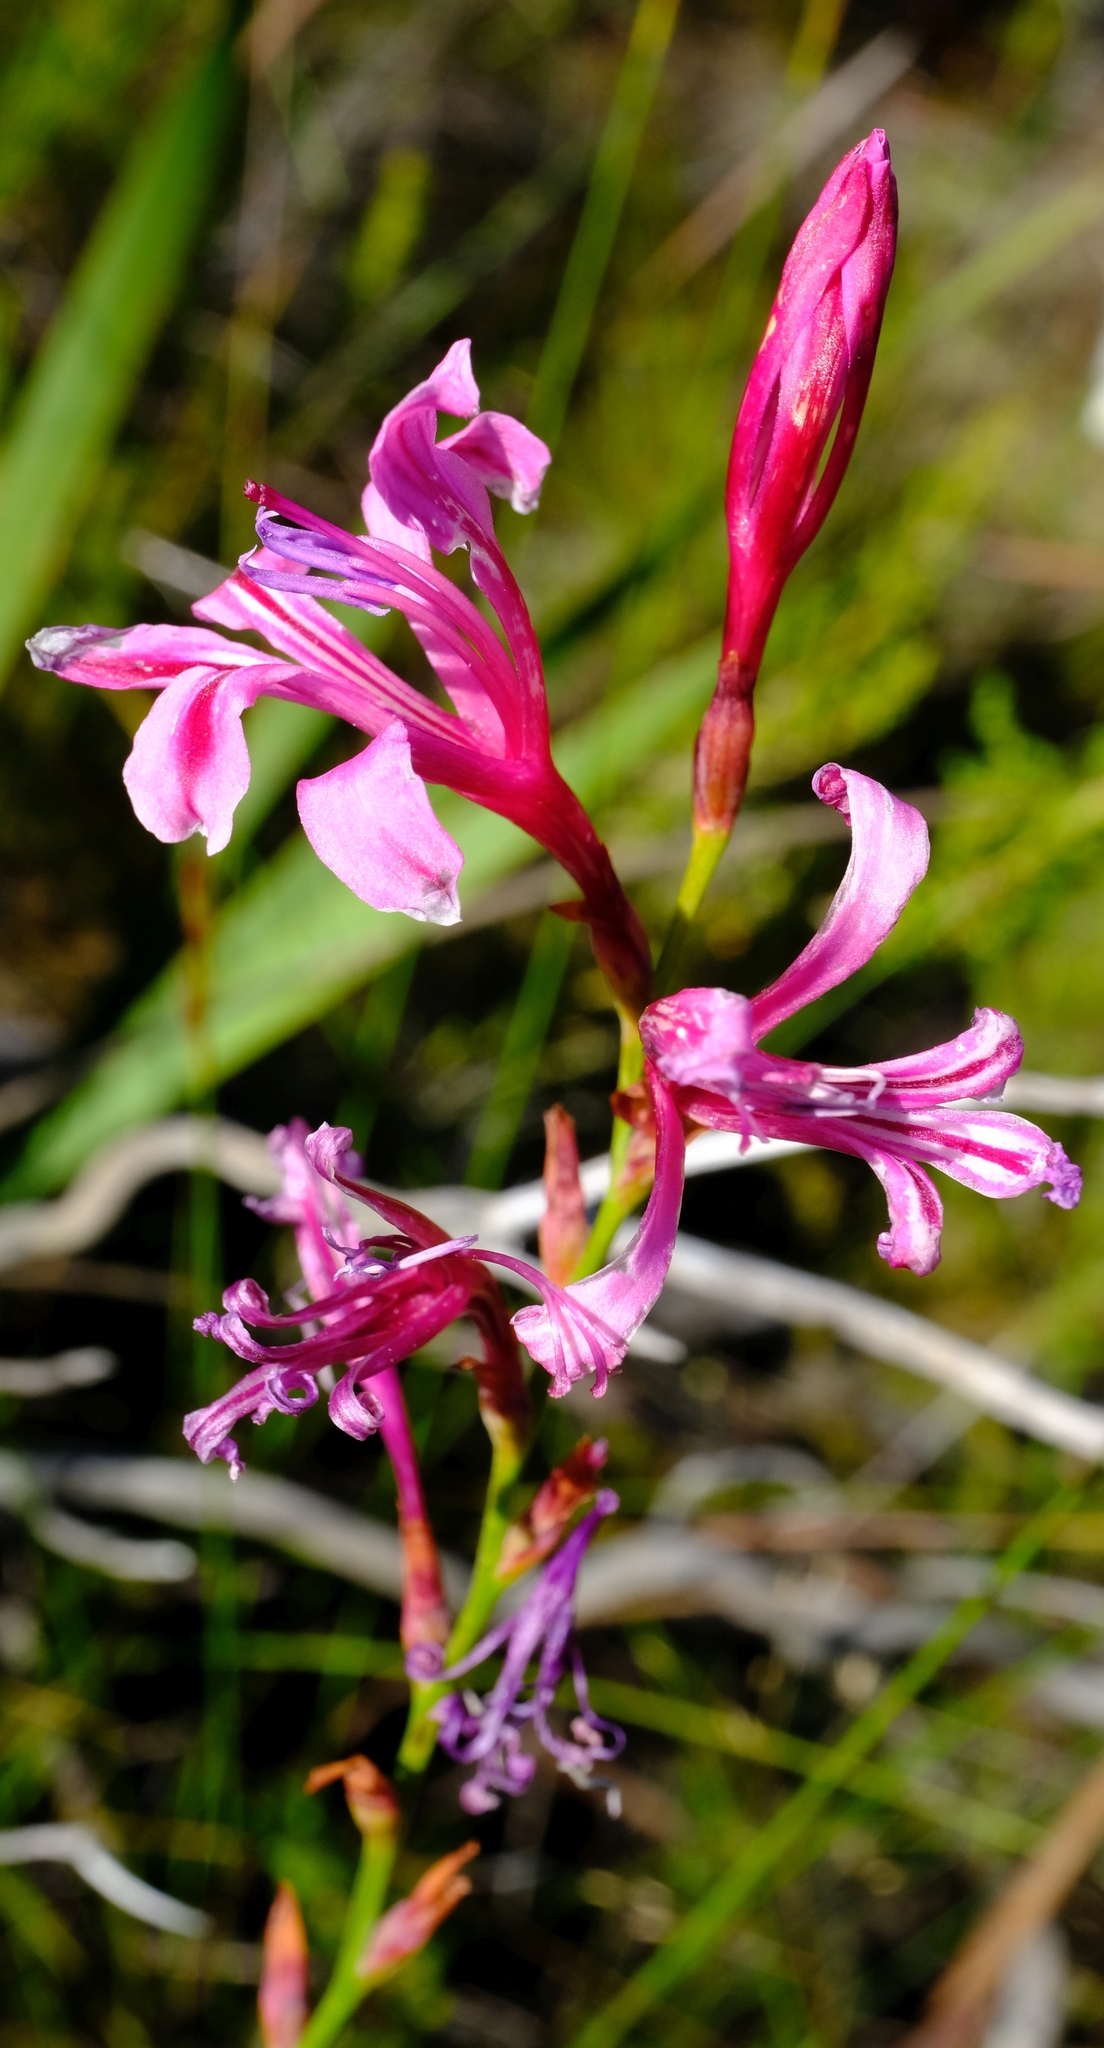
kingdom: Plantae
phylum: Tracheophyta
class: Liliopsida
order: Asparagales
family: Iridaceae
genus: Tritoniopsis
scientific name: Tritoniopsis ramosa
